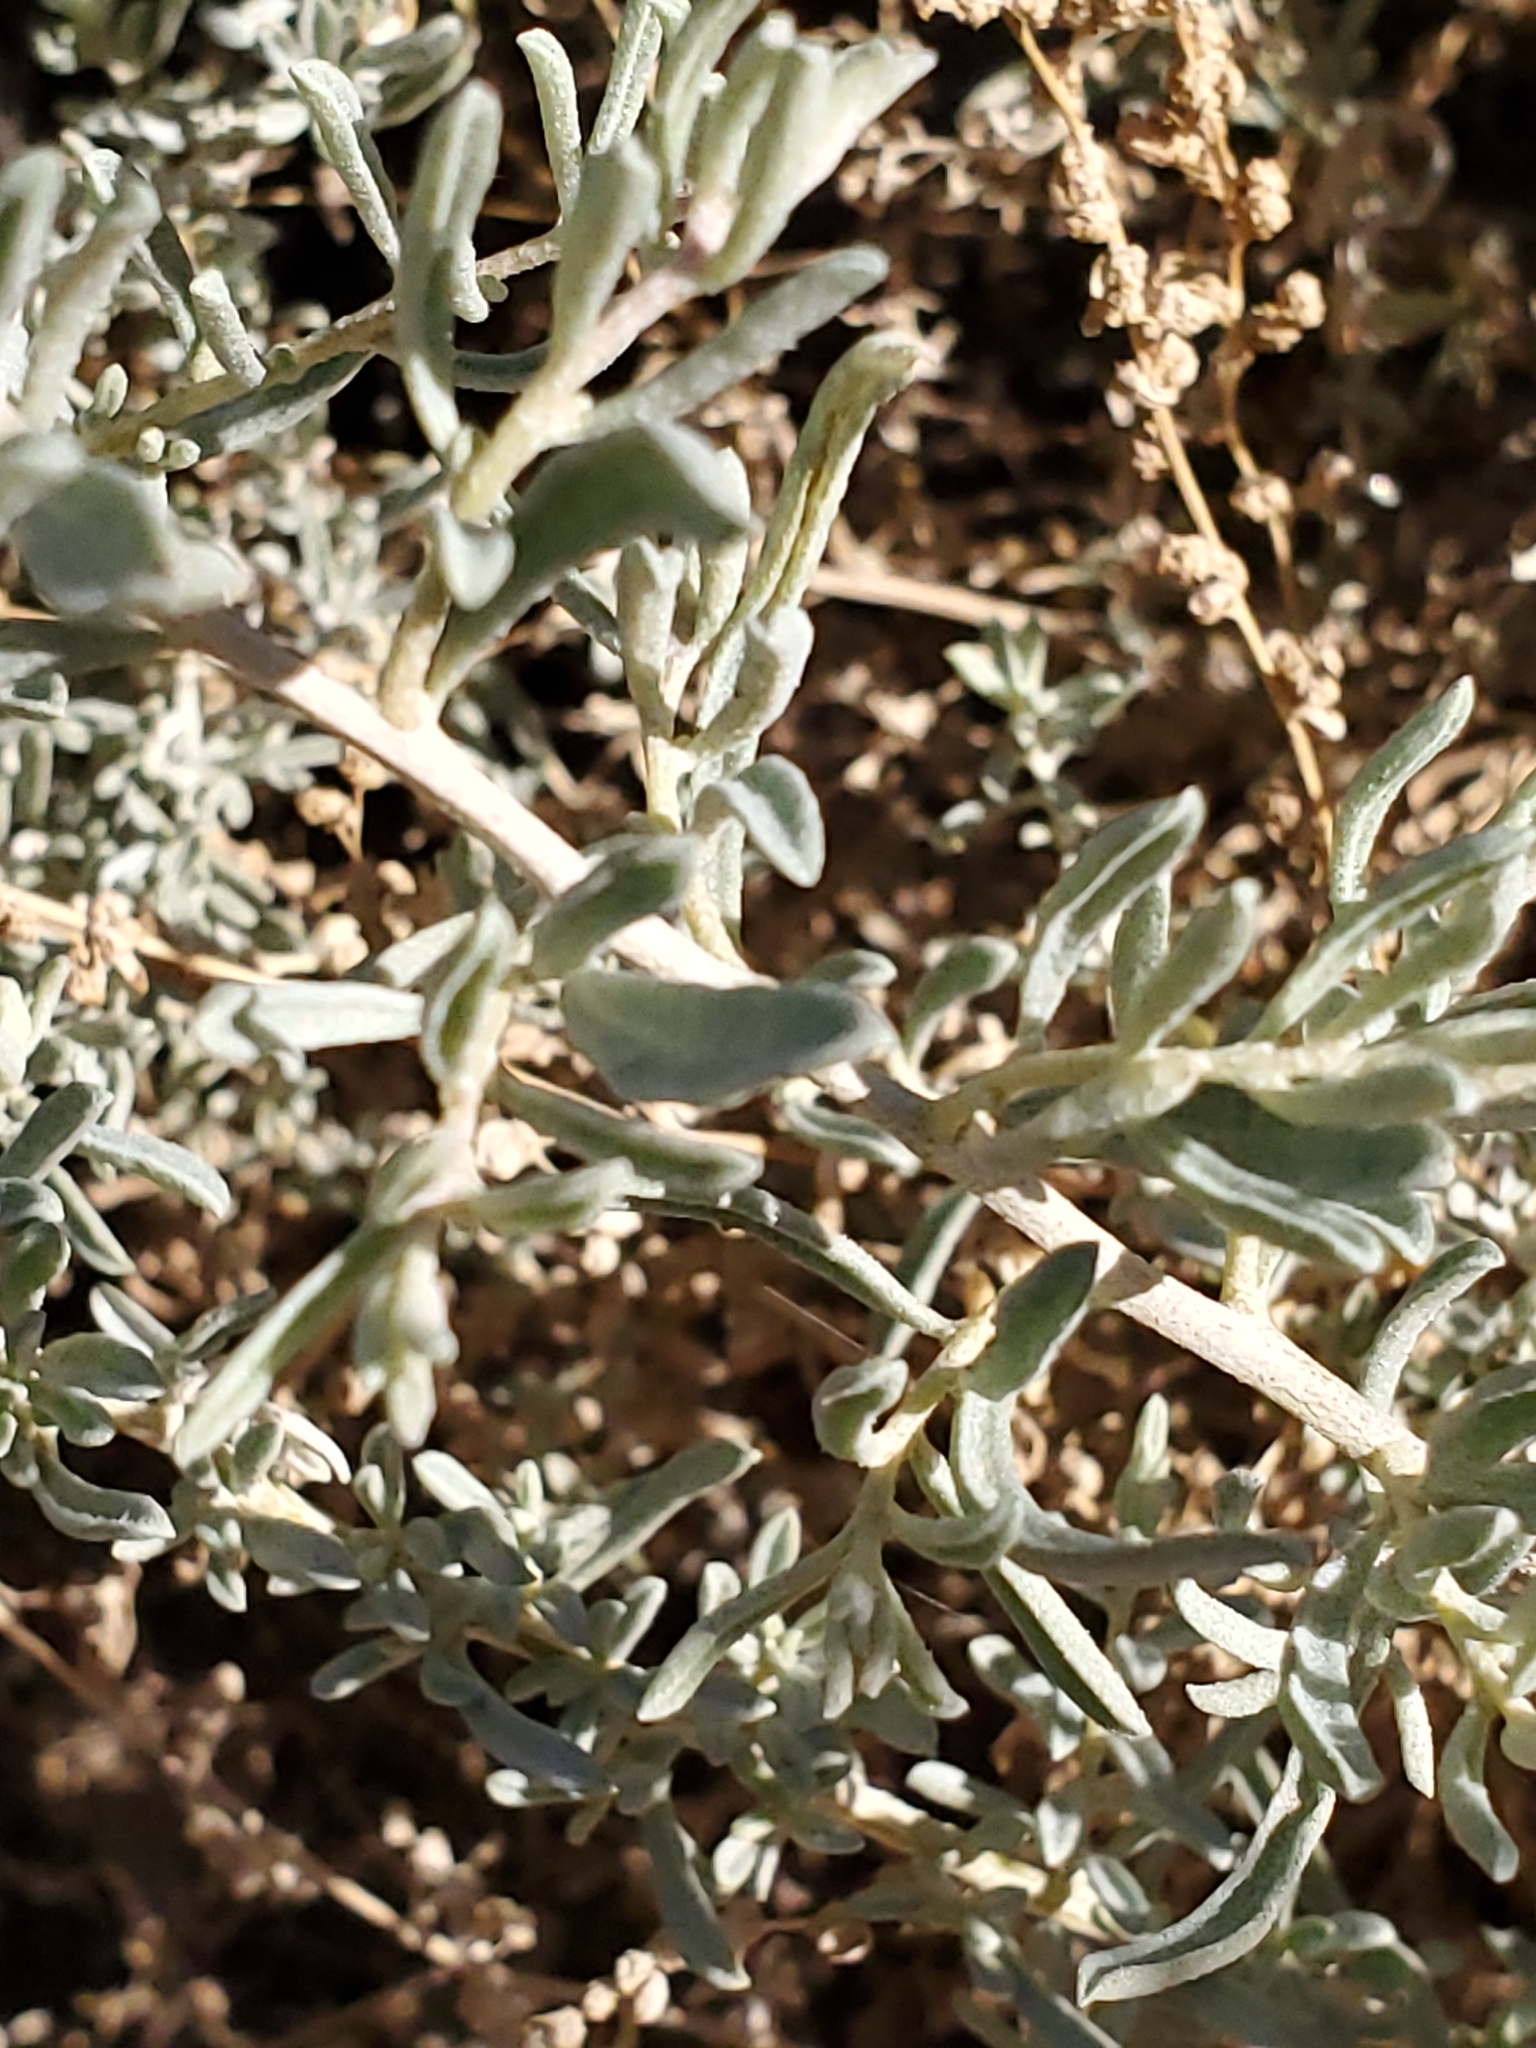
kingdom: Plantae
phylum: Tracheophyta
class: Magnoliopsida
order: Caryophyllales
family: Amaranthaceae
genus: Suaeda
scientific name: Suaeda nigra
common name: Bush seepweed
